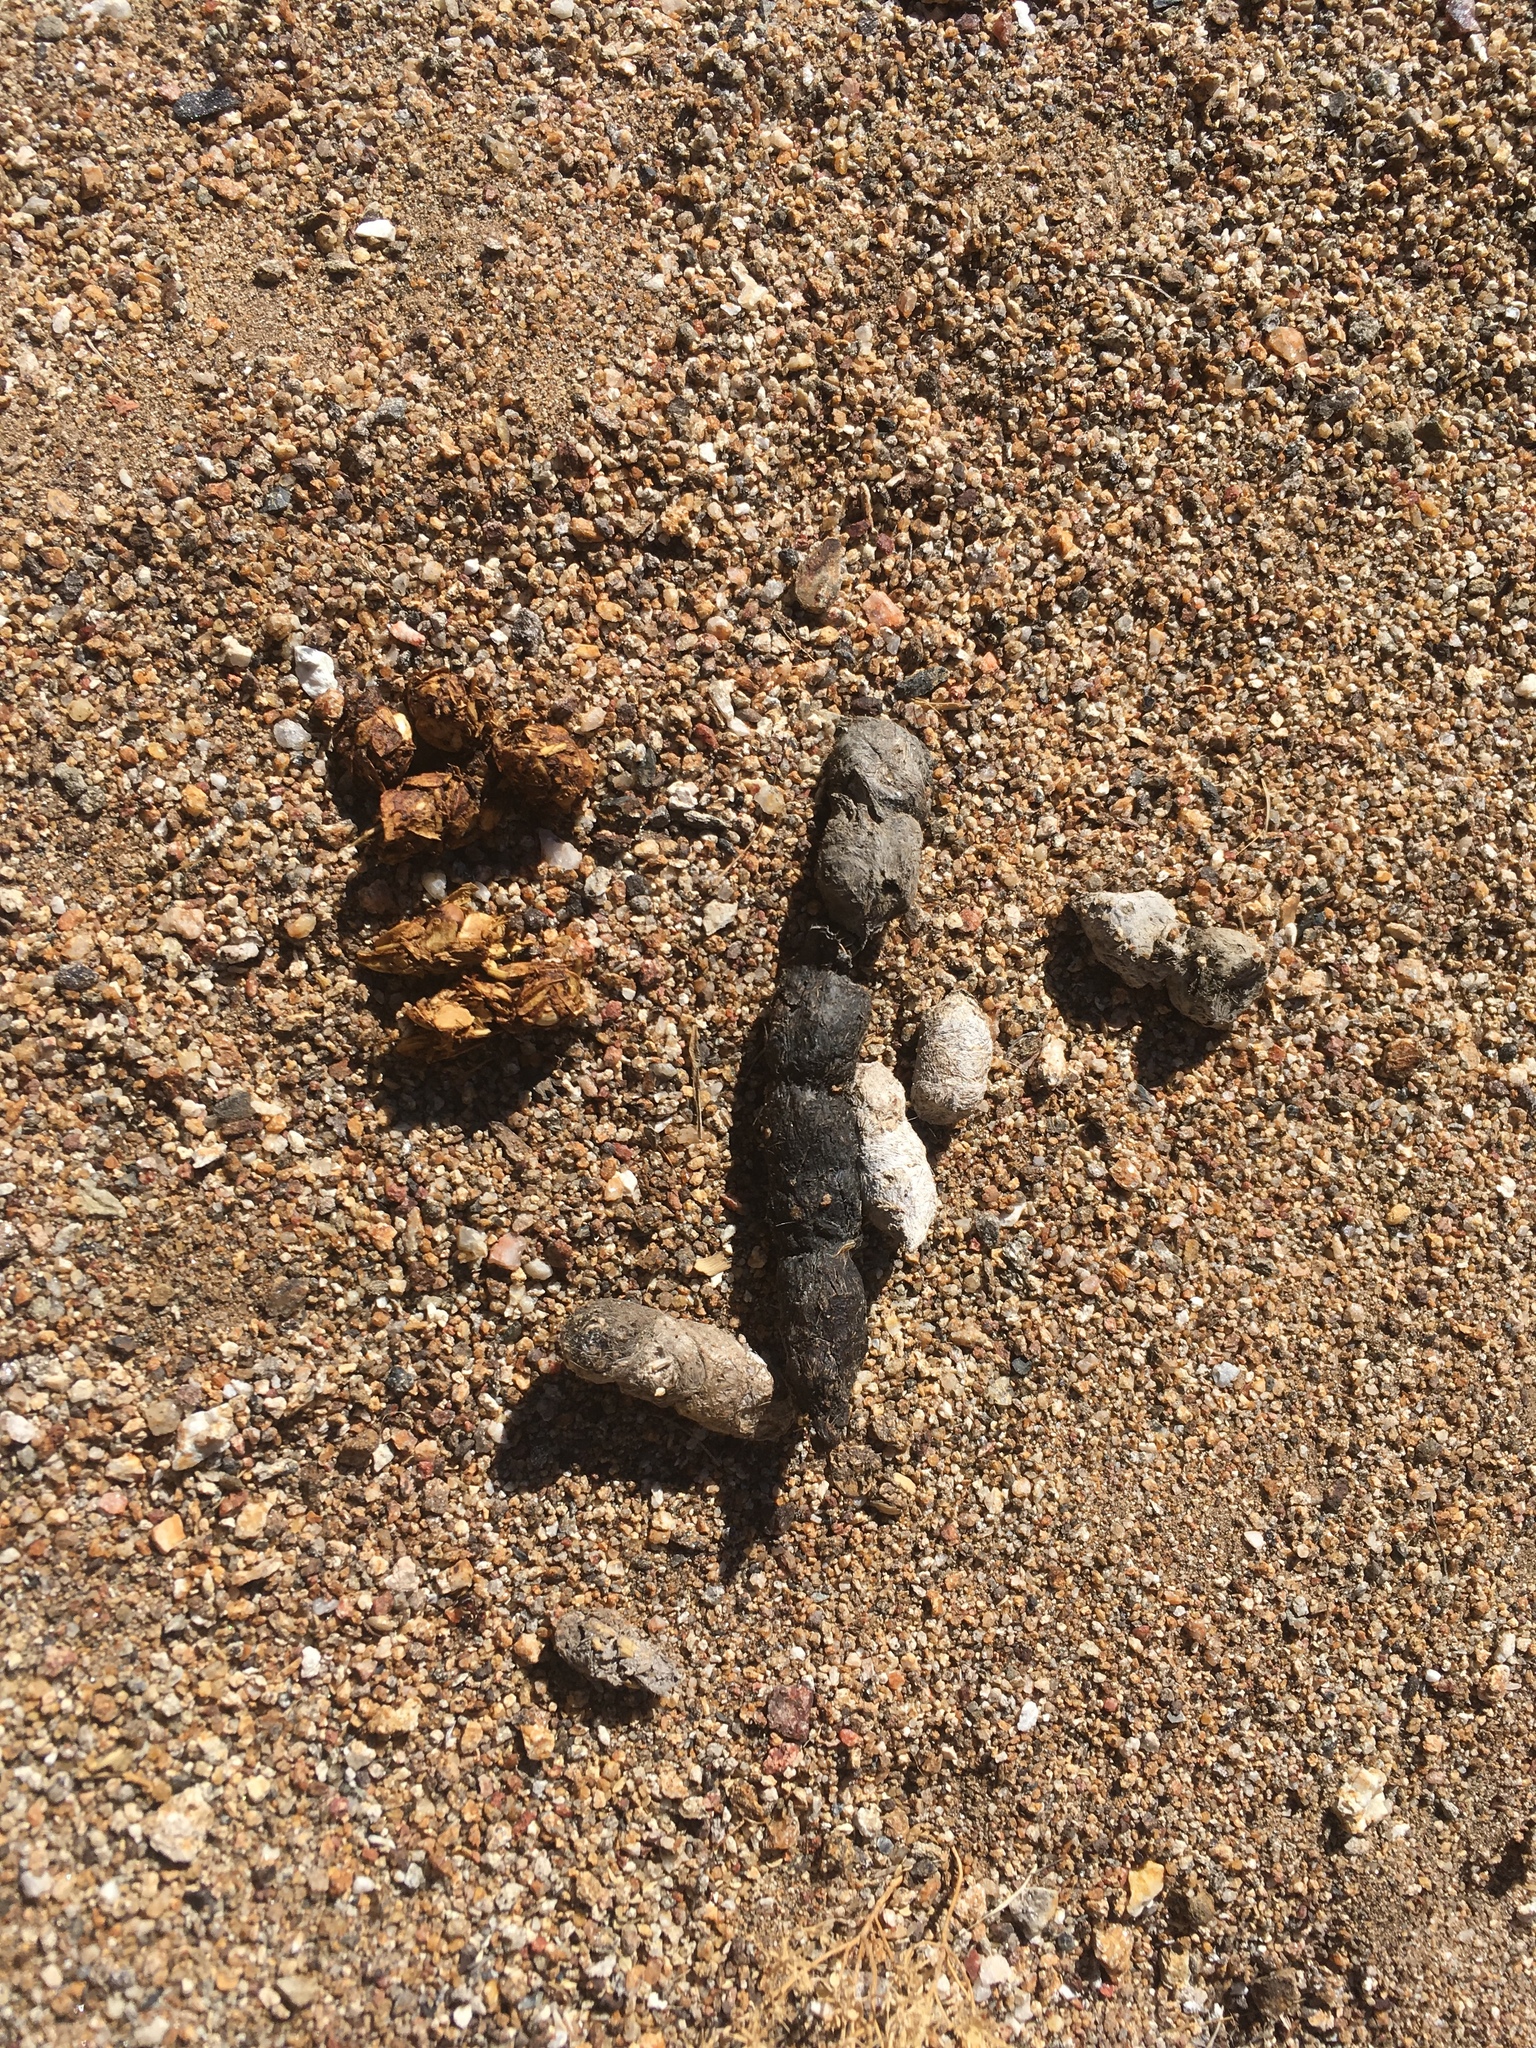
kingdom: Animalia
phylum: Chordata
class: Mammalia
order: Carnivora
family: Felidae
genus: Lynx
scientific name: Lynx rufus
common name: Bobcat
